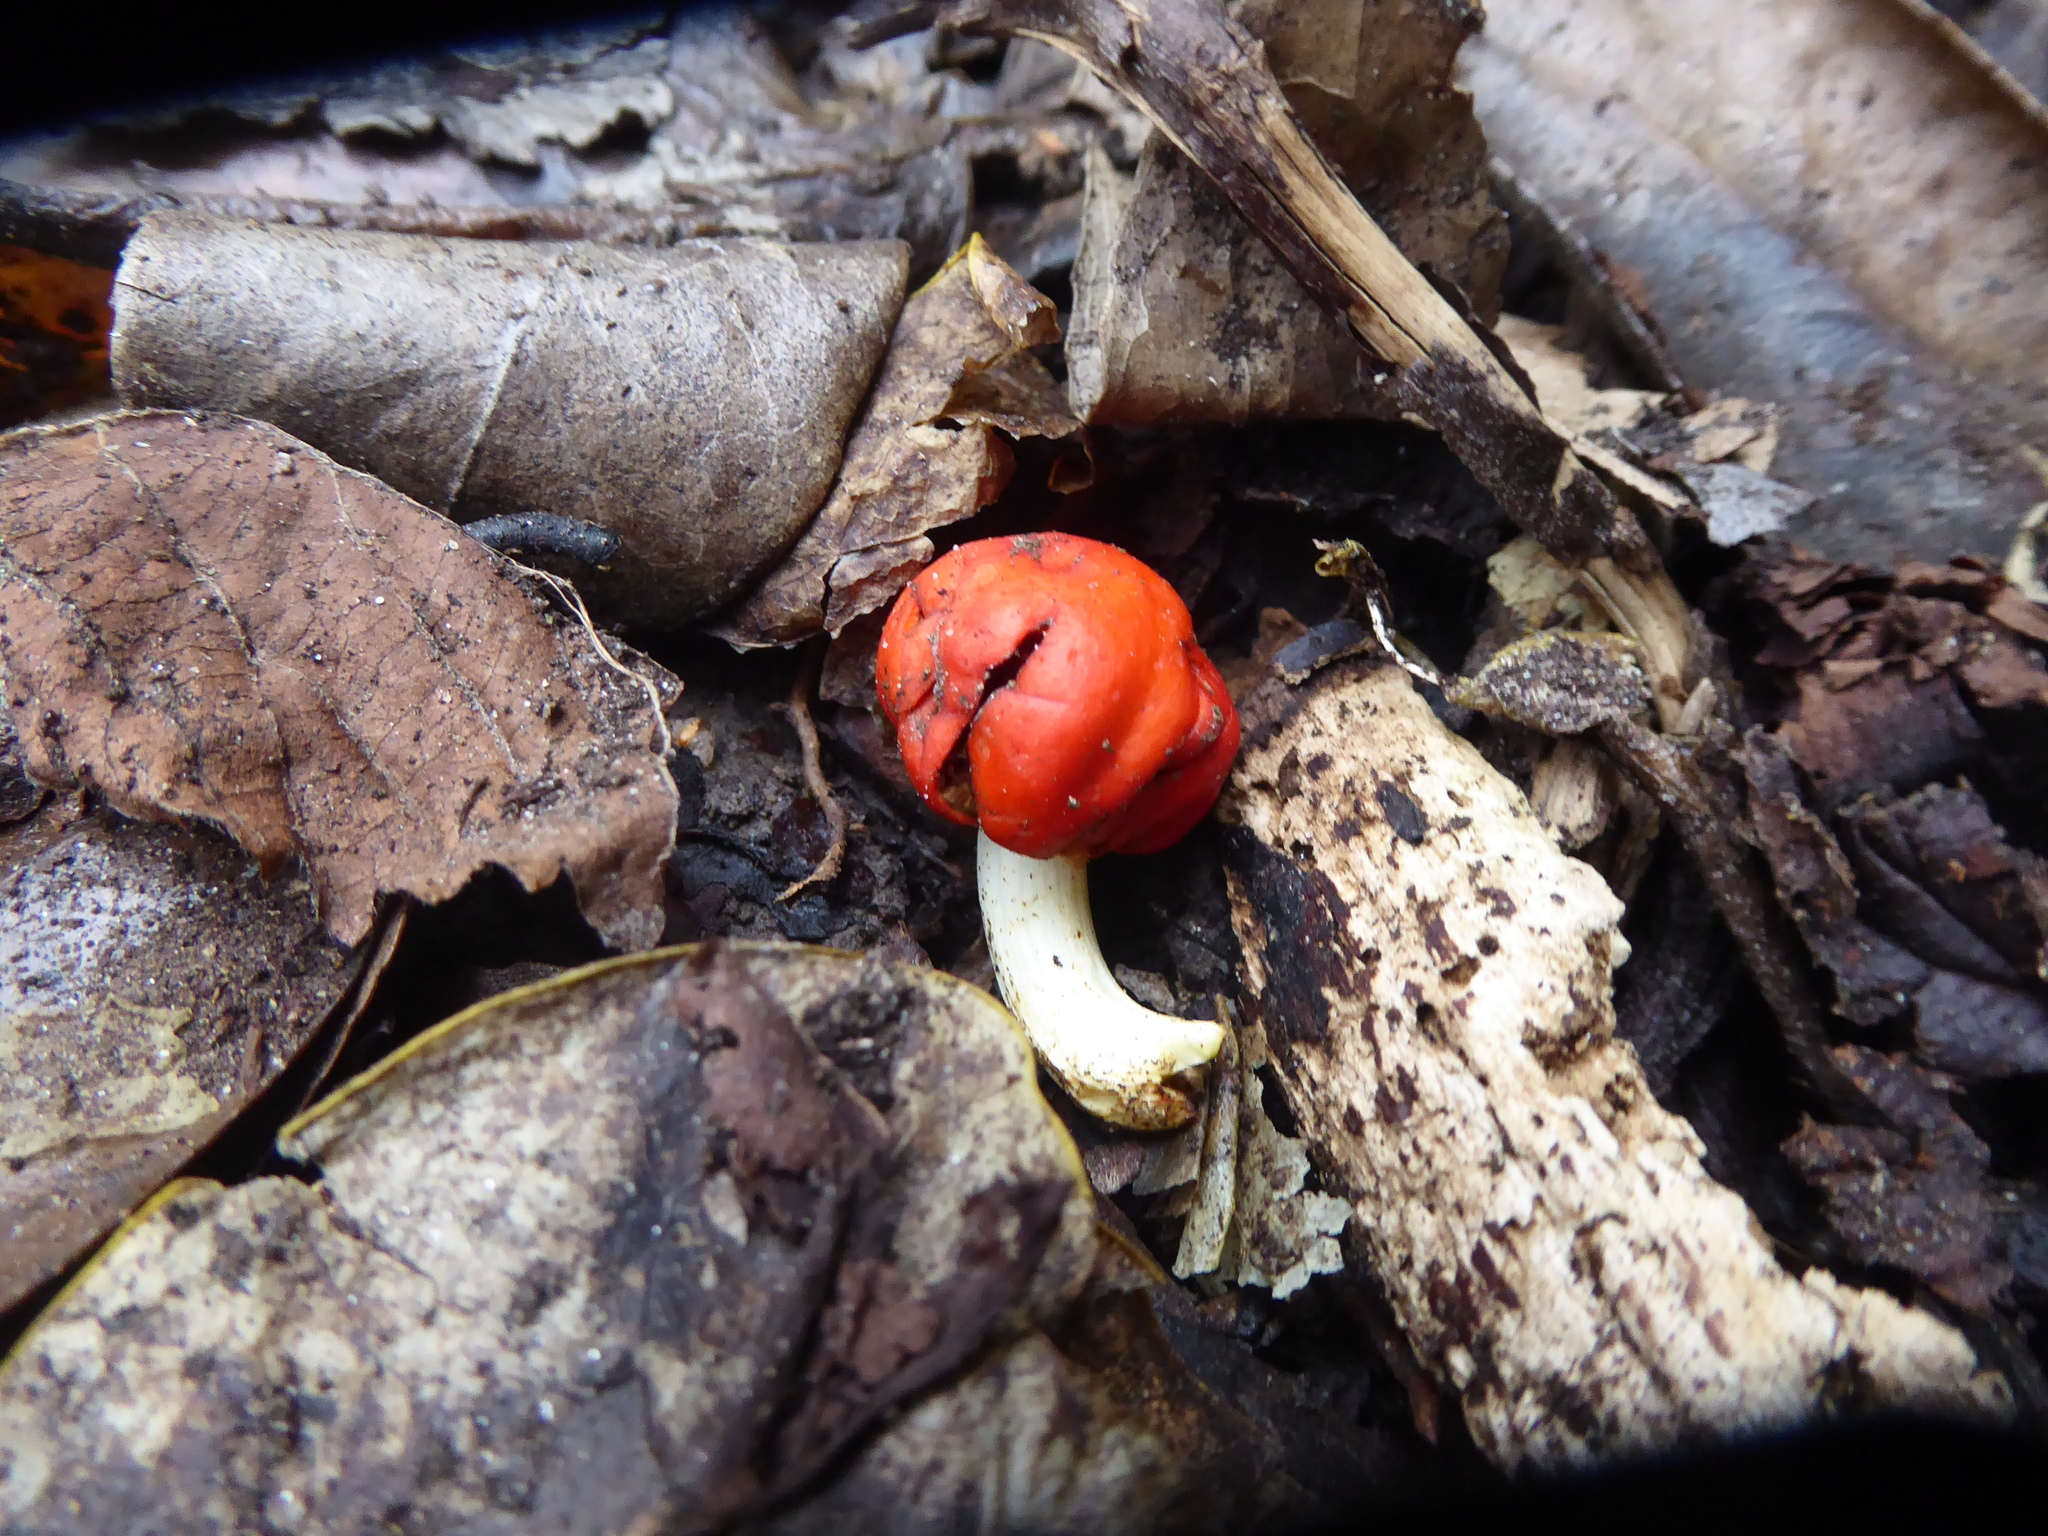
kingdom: Fungi
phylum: Basidiomycota
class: Agaricomycetes
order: Agaricales
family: Strophariaceae
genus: Leratiomyces
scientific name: Leratiomyces erythrocephalus
